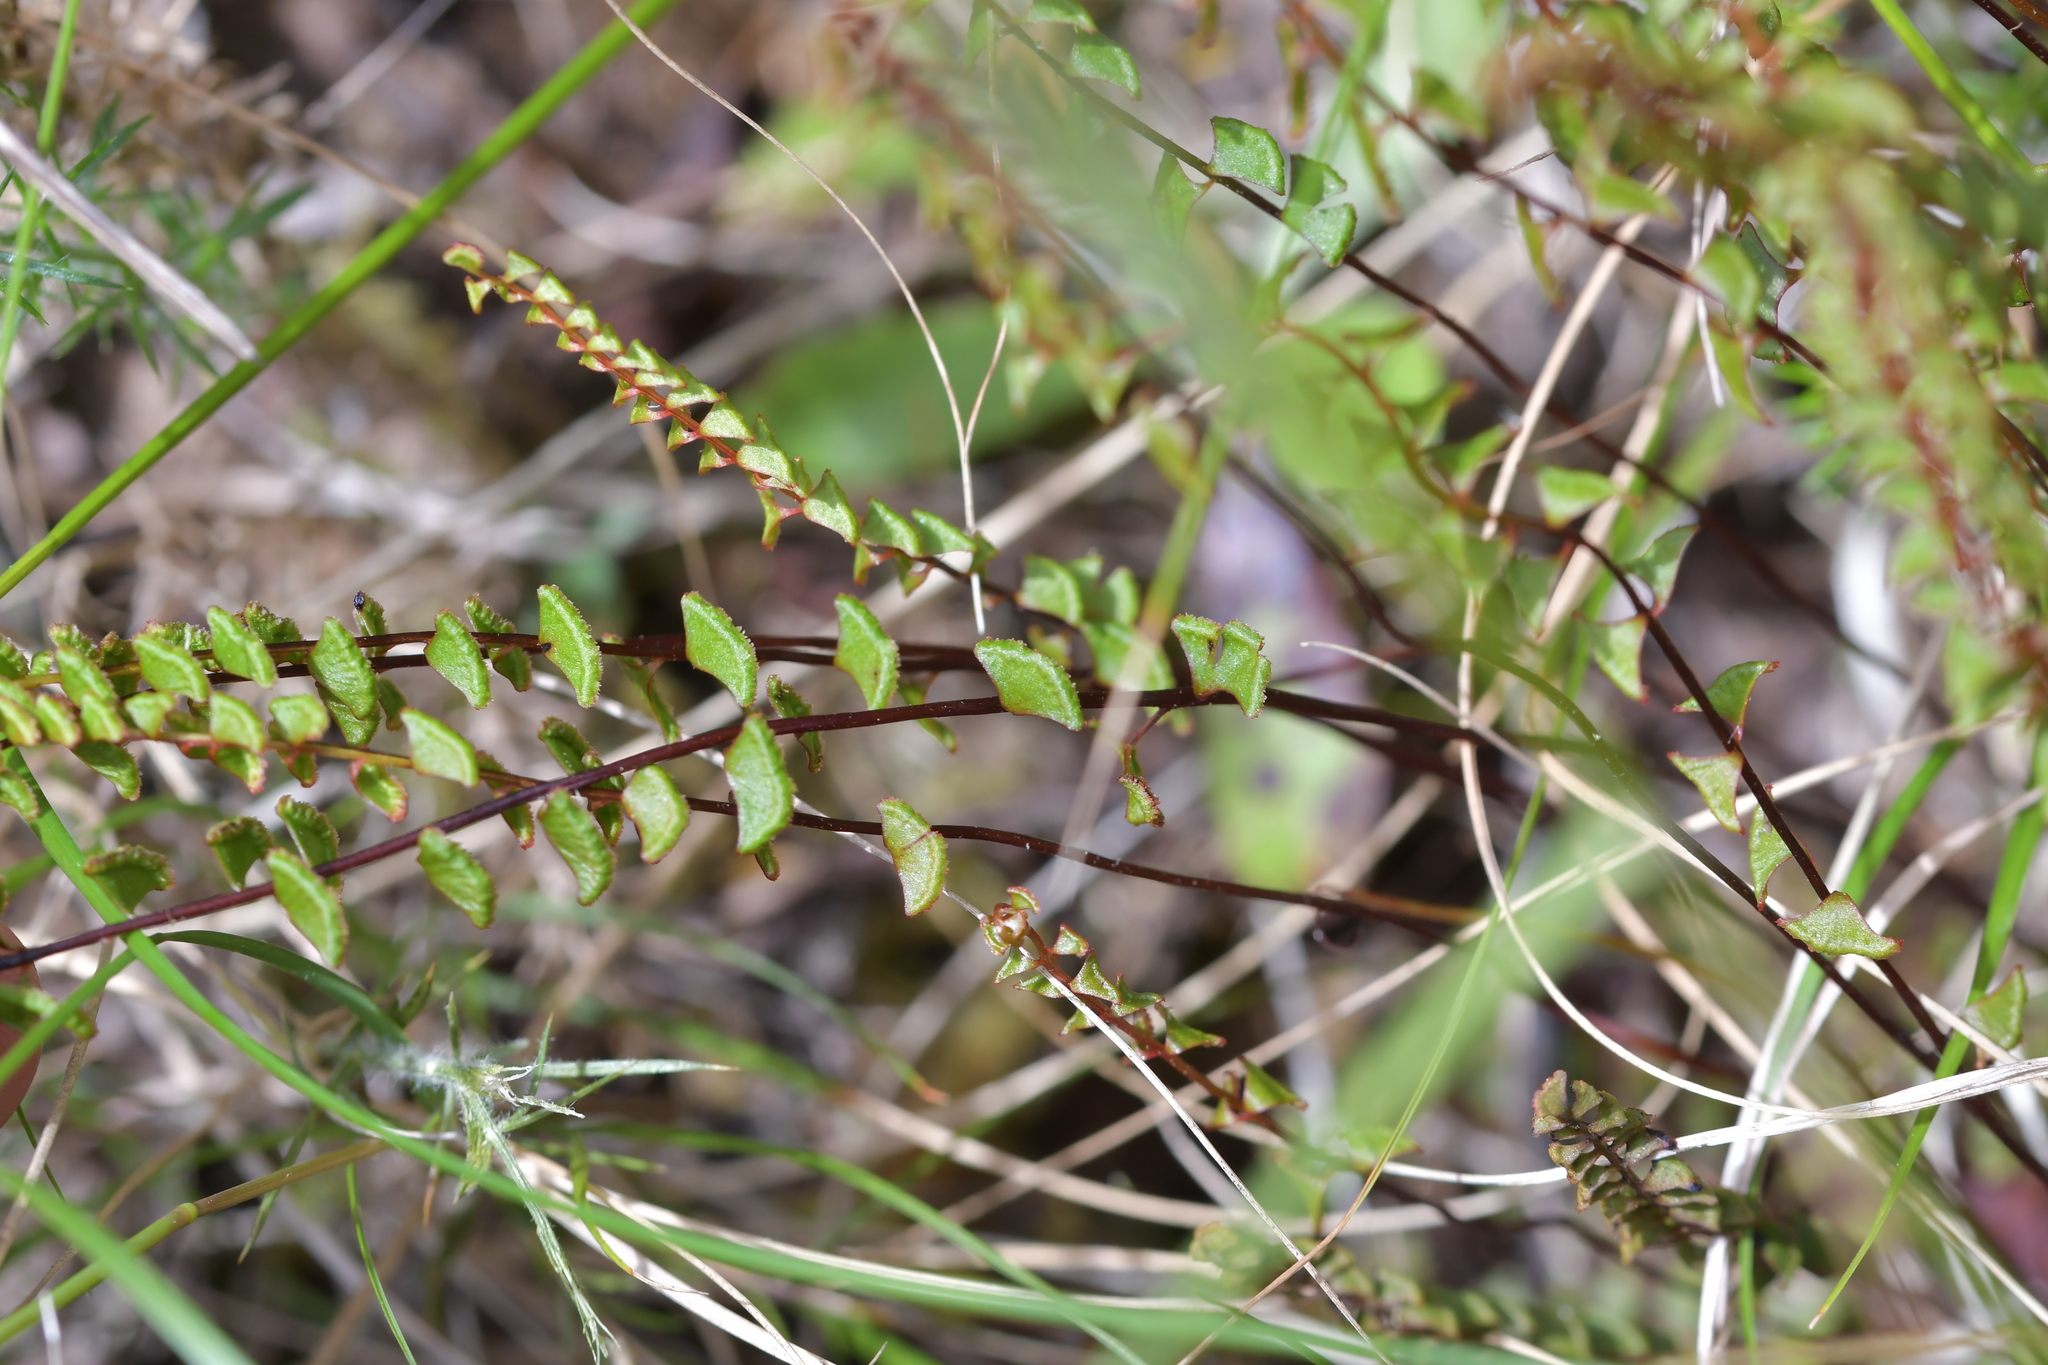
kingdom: Plantae
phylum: Tracheophyta
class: Polypodiopsida
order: Polypodiales
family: Lindsaeaceae
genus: Lindsaea
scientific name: Lindsaea linearis
